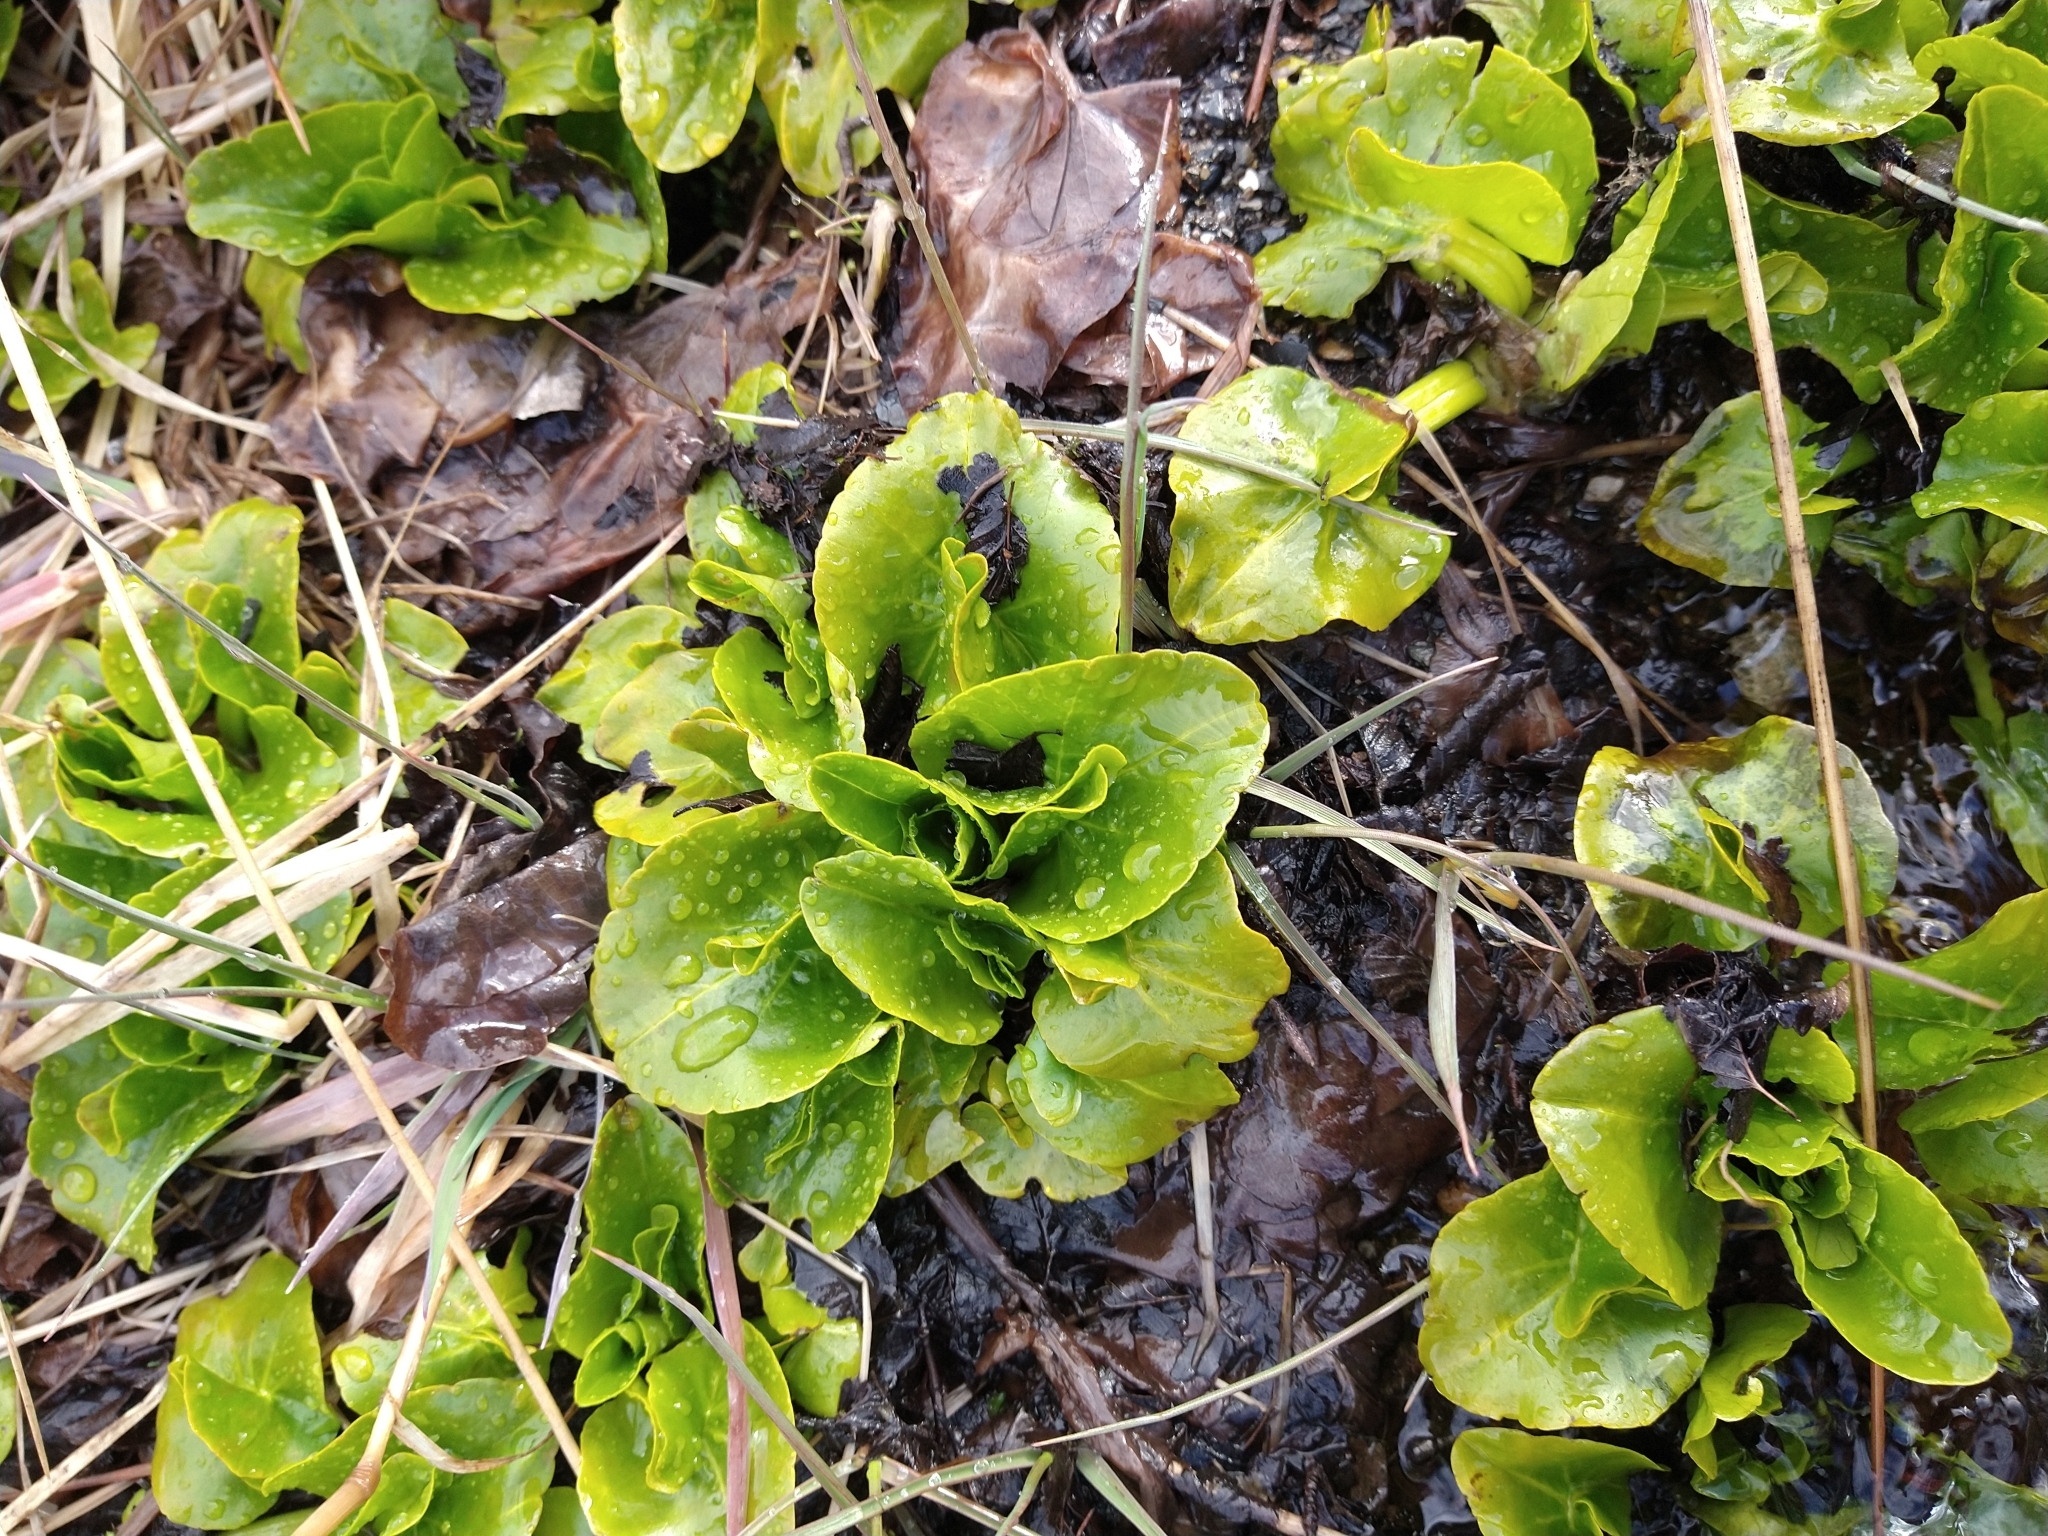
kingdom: Plantae
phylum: Tracheophyta
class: Magnoliopsida
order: Ranunculales
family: Ranunculaceae
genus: Caltha
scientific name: Caltha sagittata
